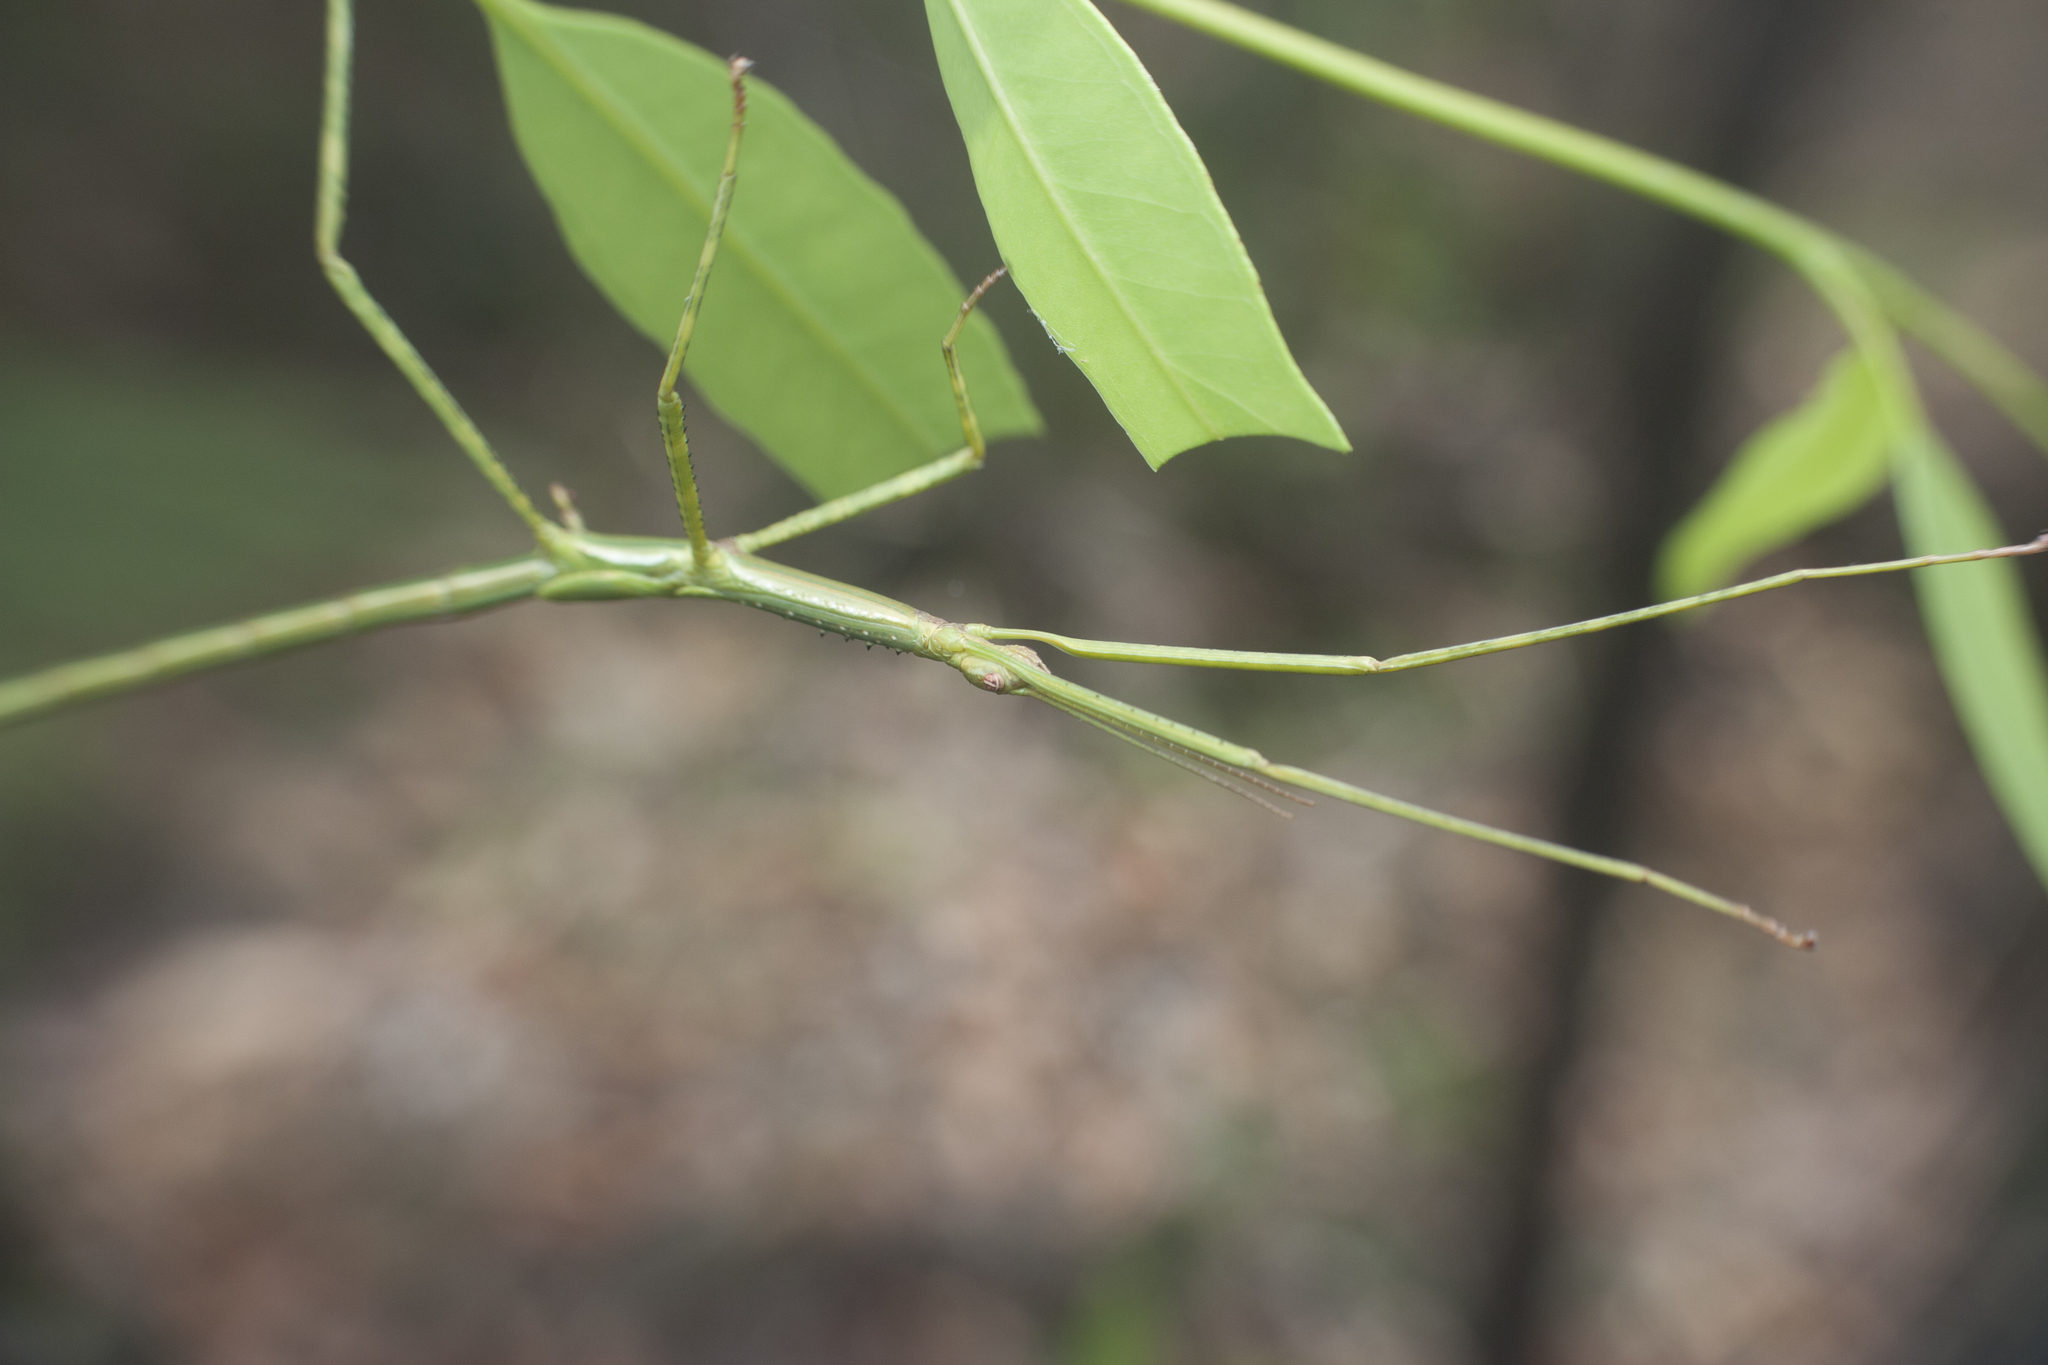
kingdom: Animalia
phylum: Arthropoda
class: Insecta
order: Phasmida
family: Phasmatidae
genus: Anchiale
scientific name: Anchiale austrotessulata
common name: Tessellated stick-insect
